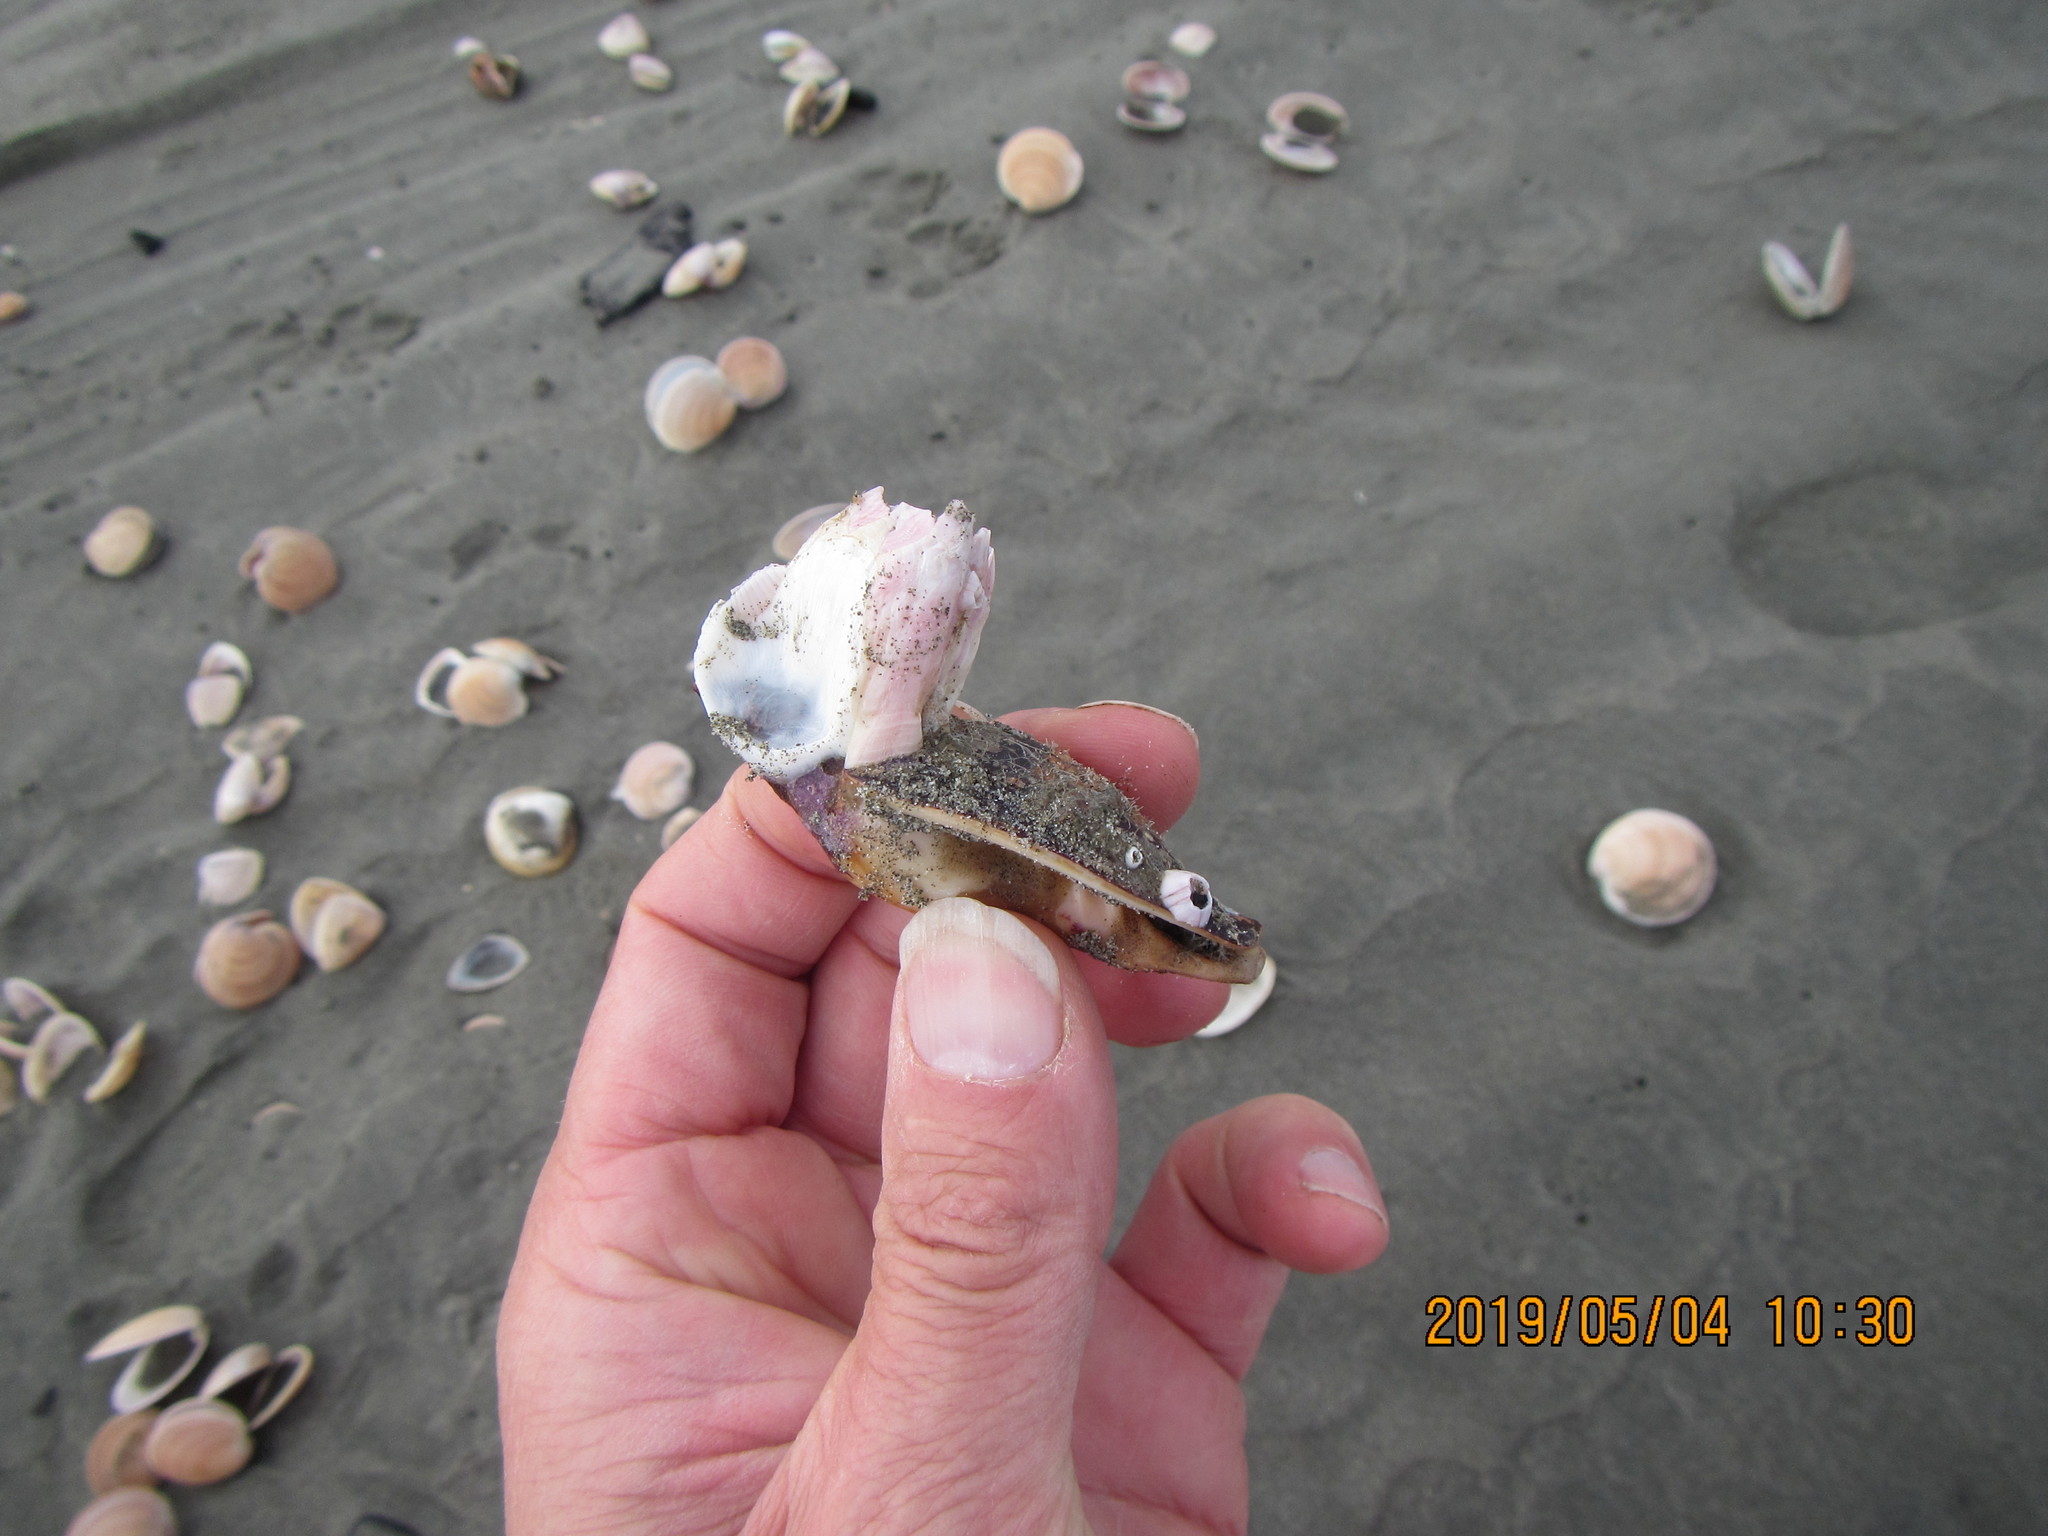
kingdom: Animalia
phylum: Arthropoda
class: Maxillopoda
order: Sessilia
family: Balanidae
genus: Notomegabalanus
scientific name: Notomegabalanus decorus
